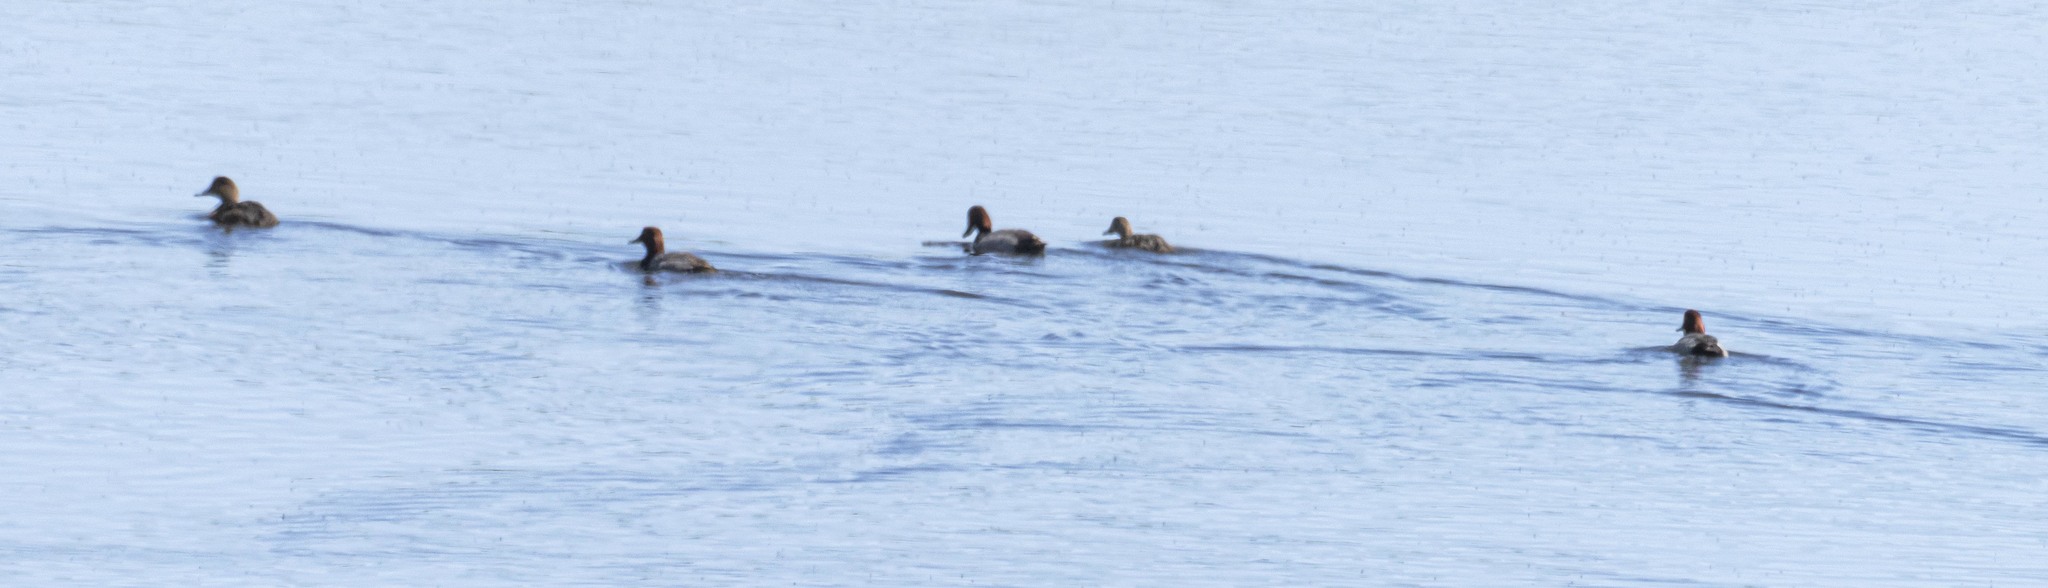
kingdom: Animalia
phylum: Chordata
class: Aves
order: Anseriformes
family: Anatidae
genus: Aythya
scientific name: Aythya americana
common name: Redhead
